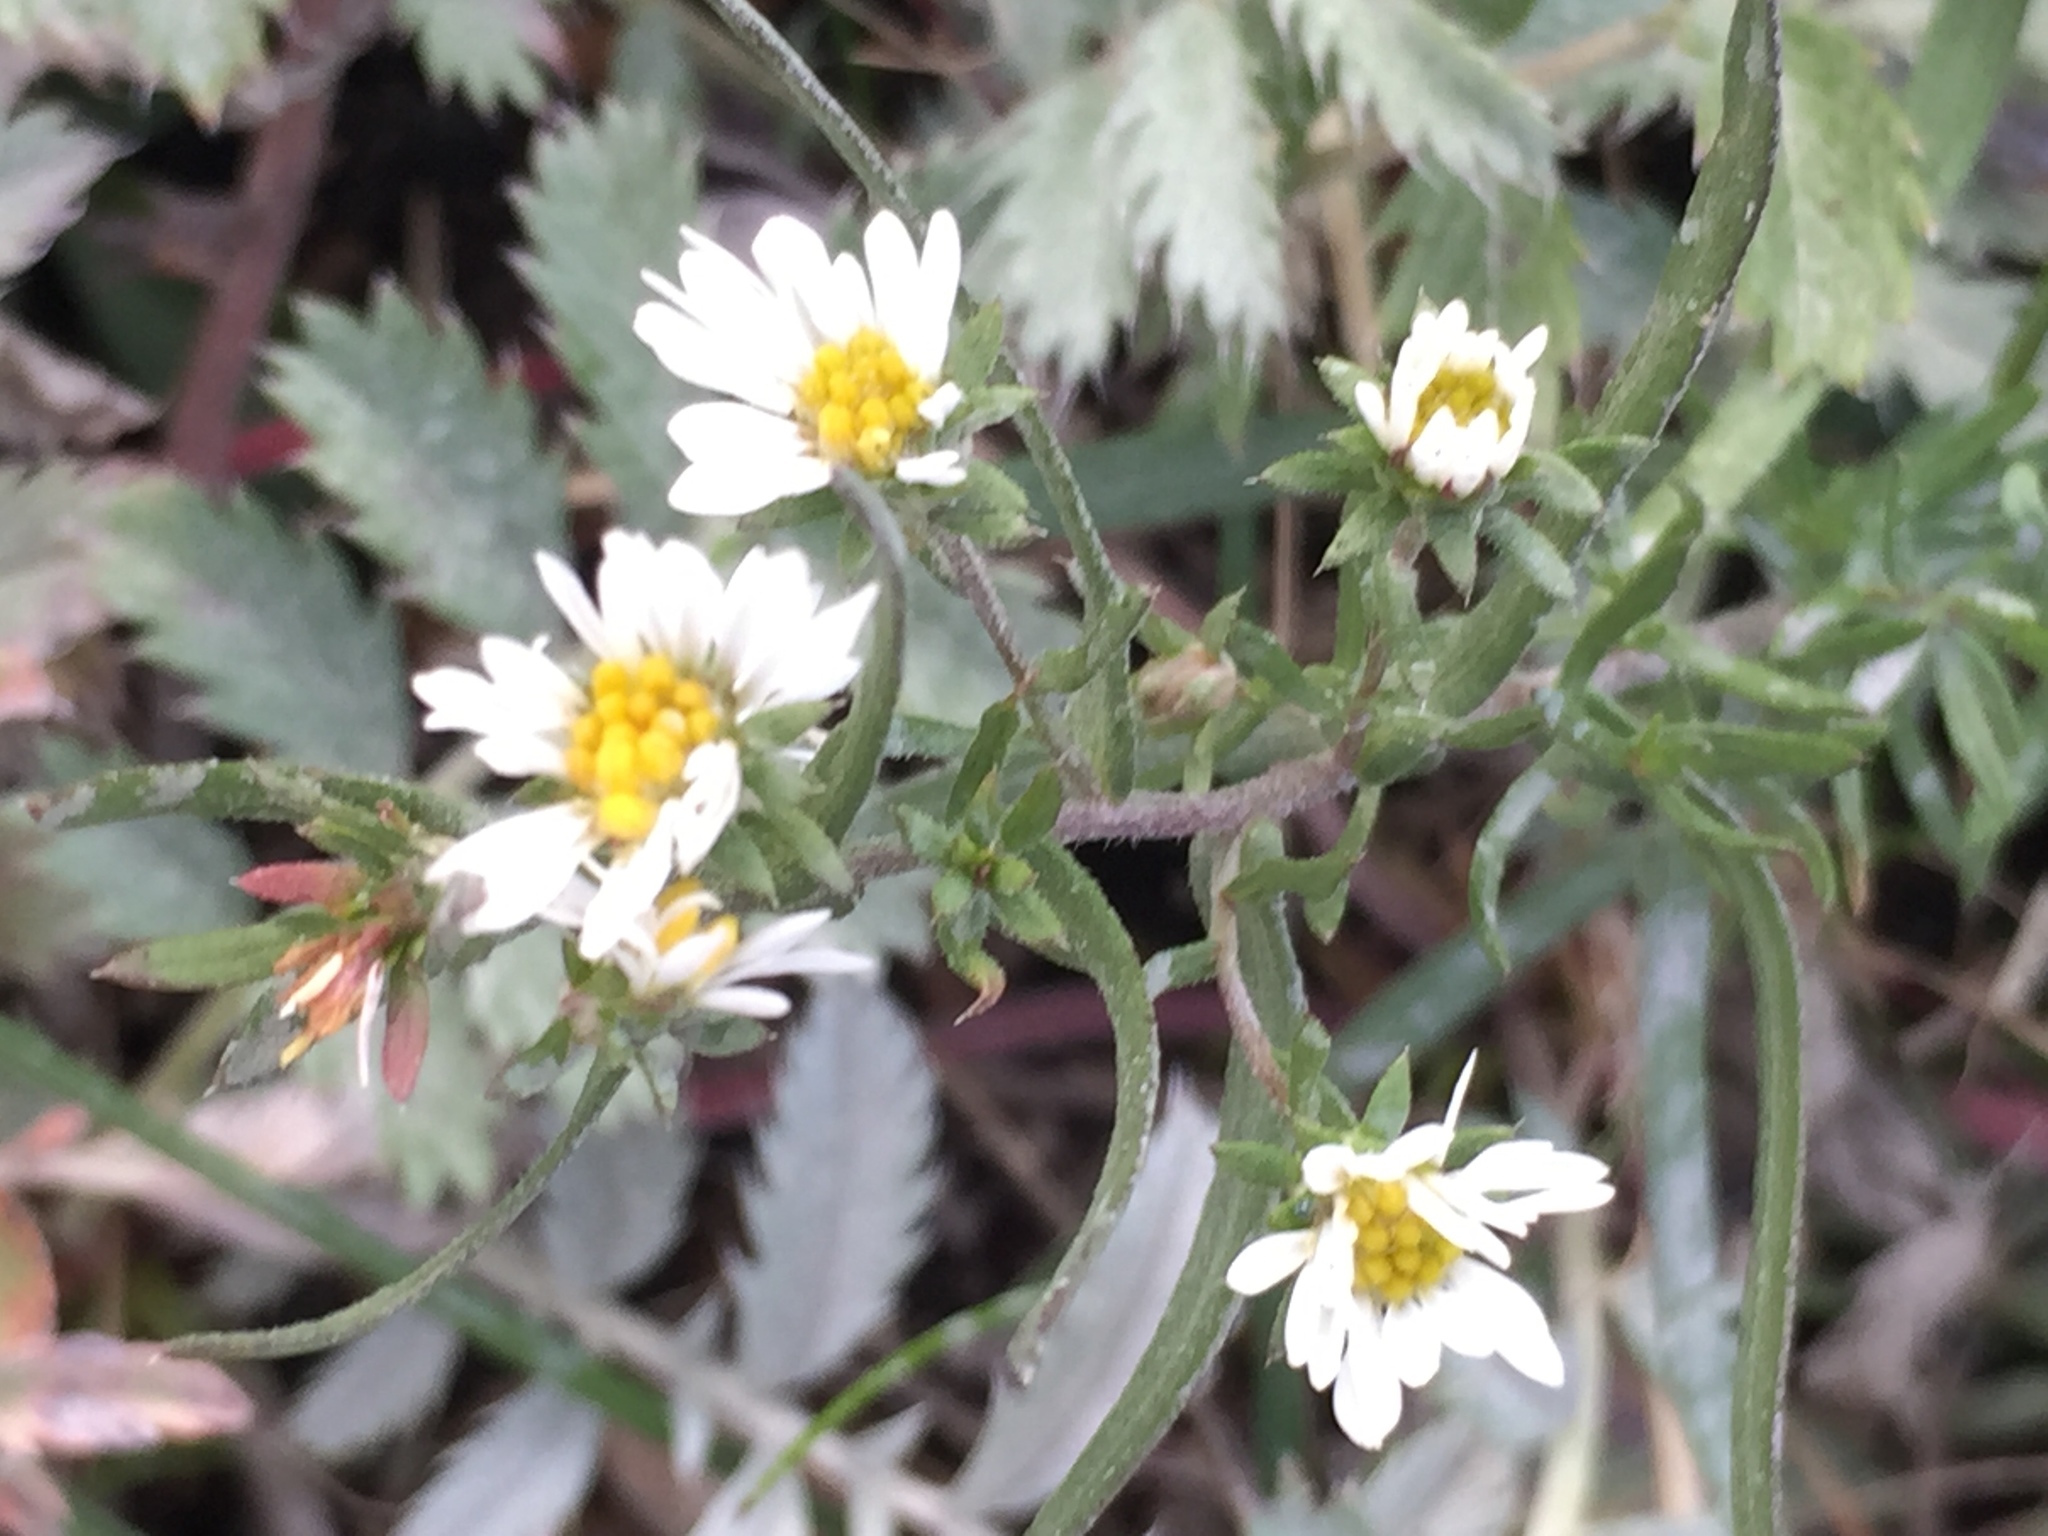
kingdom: Plantae
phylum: Tracheophyta
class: Magnoliopsida
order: Asterales
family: Asteraceae
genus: Symphyotrichum
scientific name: Symphyotrichum ericoides
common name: Heath aster
